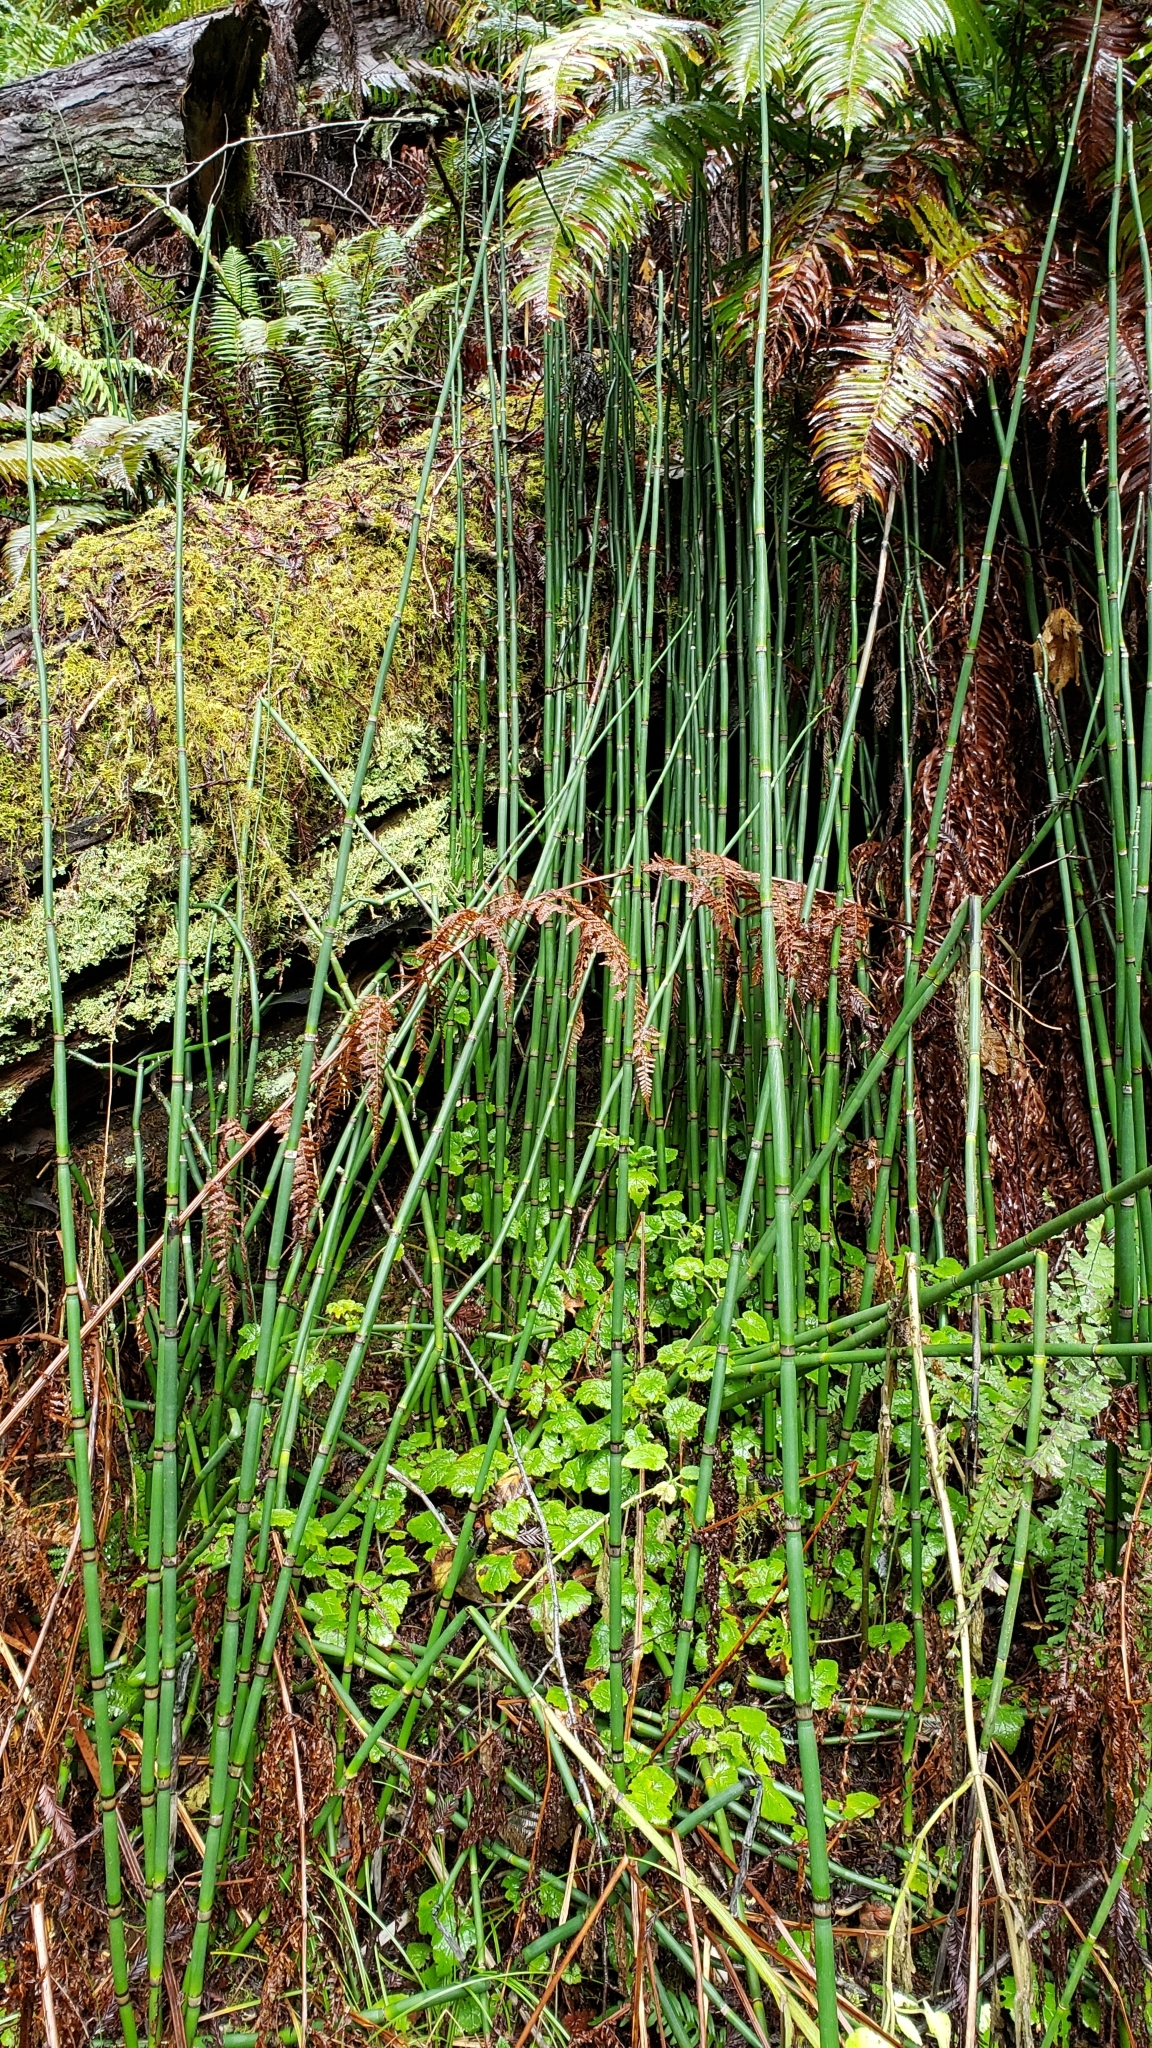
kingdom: Plantae
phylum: Tracheophyta
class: Polypodiopsida
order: Equisetales
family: Equisetaceae
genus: Equisetum
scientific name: Equisetum praealtum
